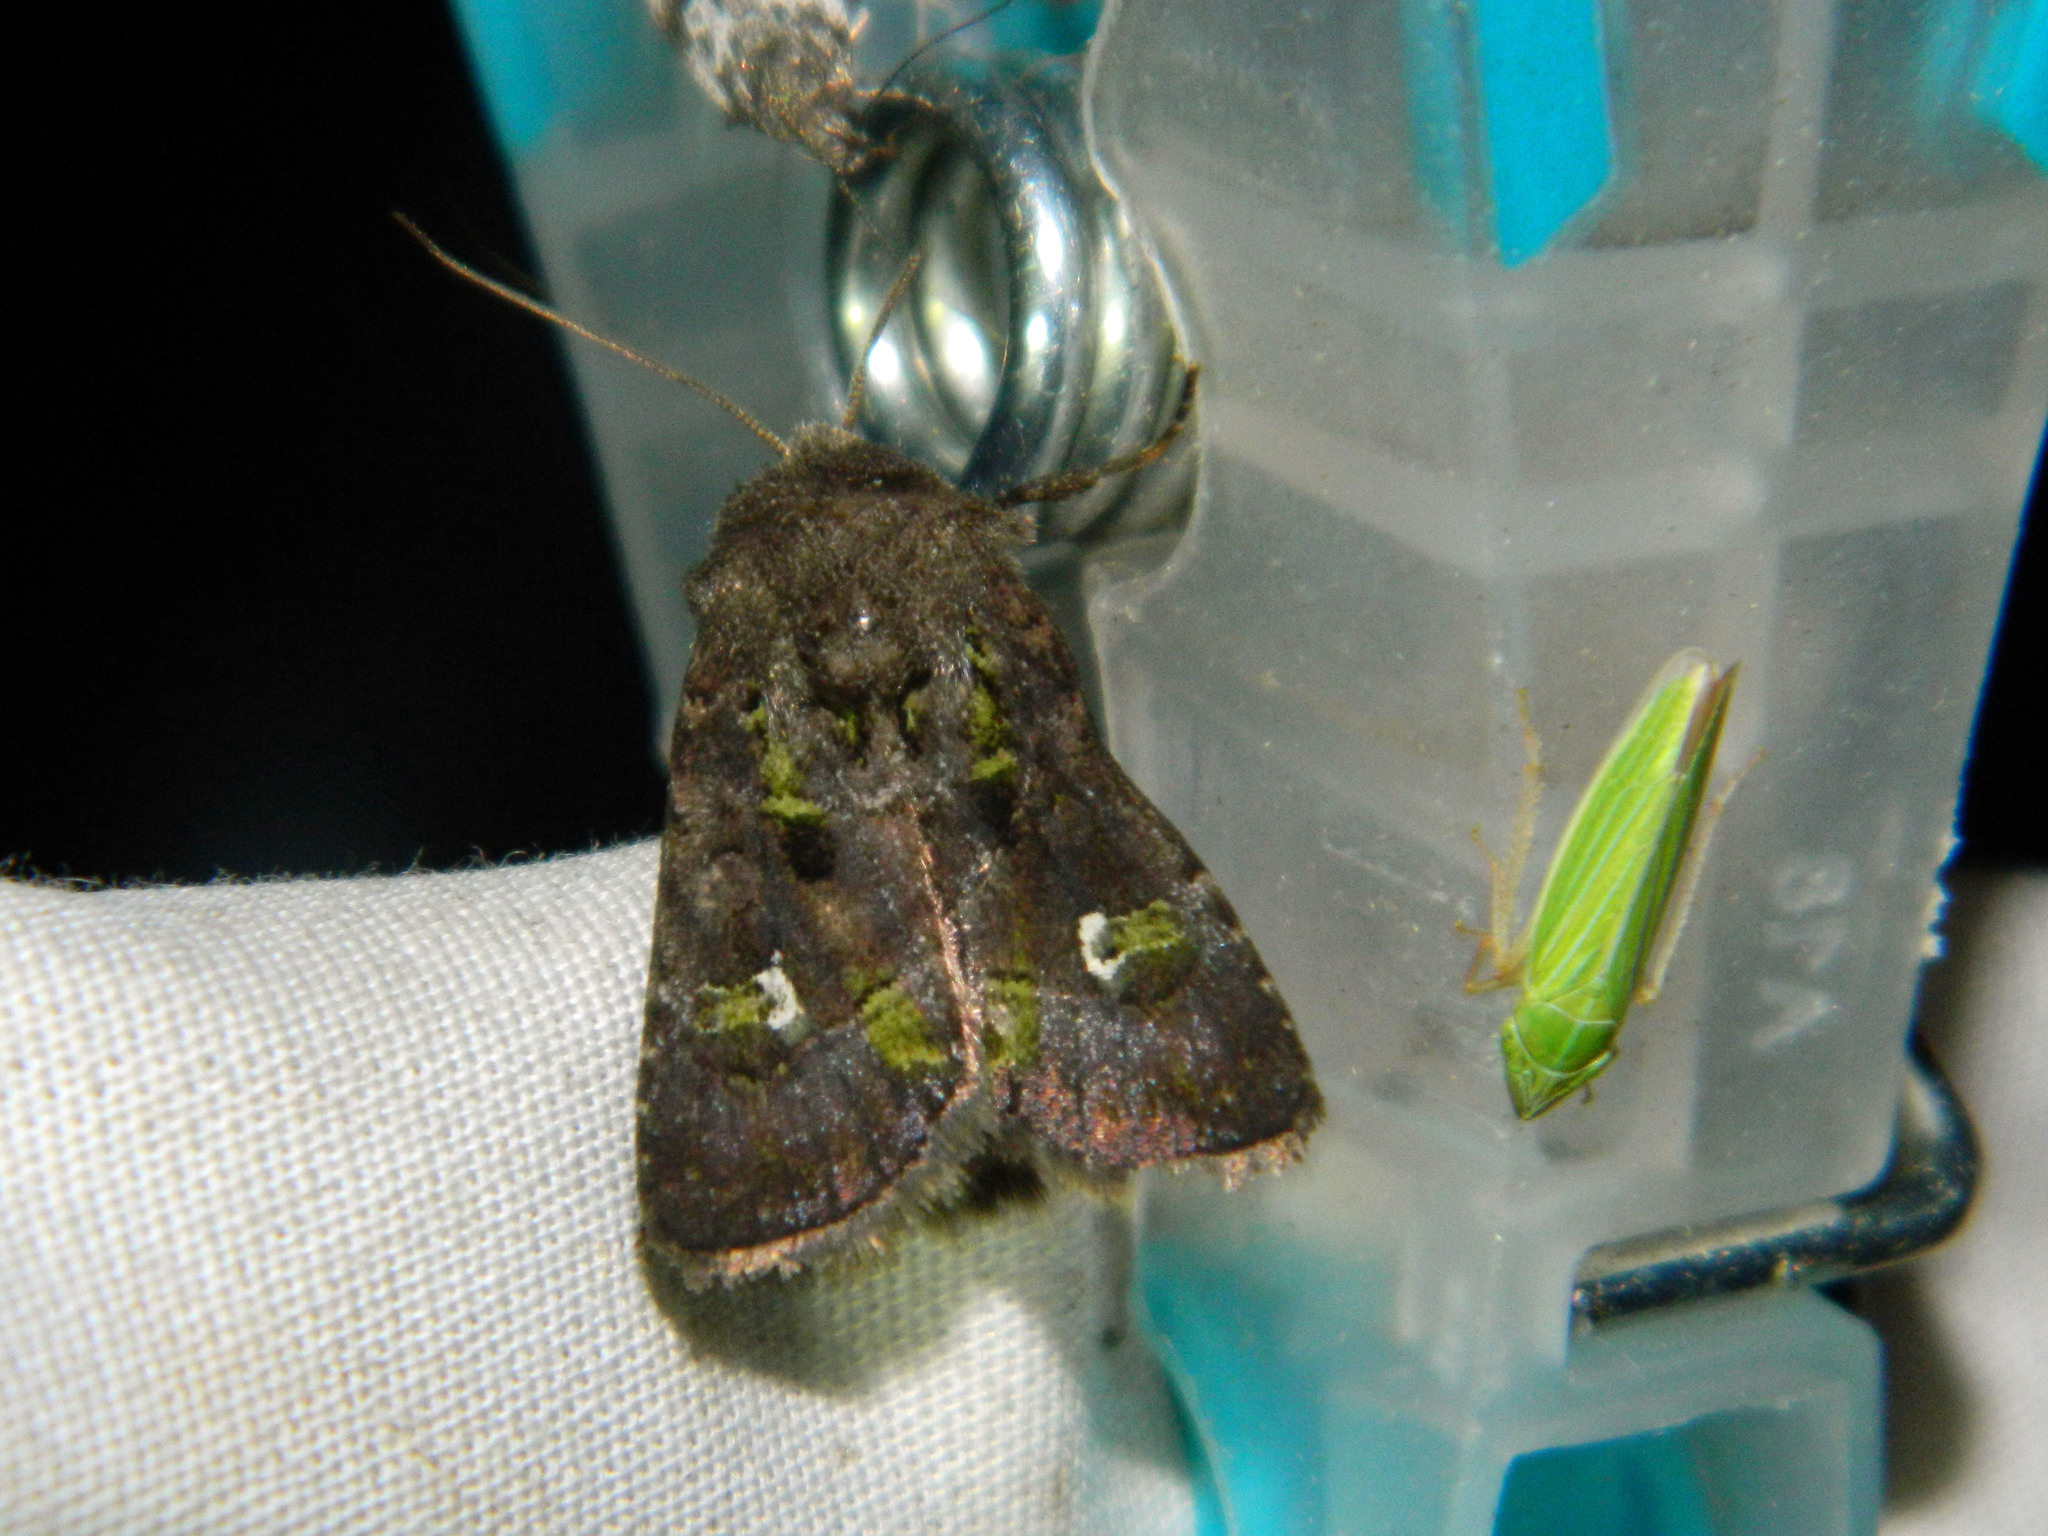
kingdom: Animalia
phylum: Arthropoda
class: Insecta
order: Lepidoptera
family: Noctuidae
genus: Lacinipolia
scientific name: Lacinipolia renigera
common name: Kidney-spotted minor
